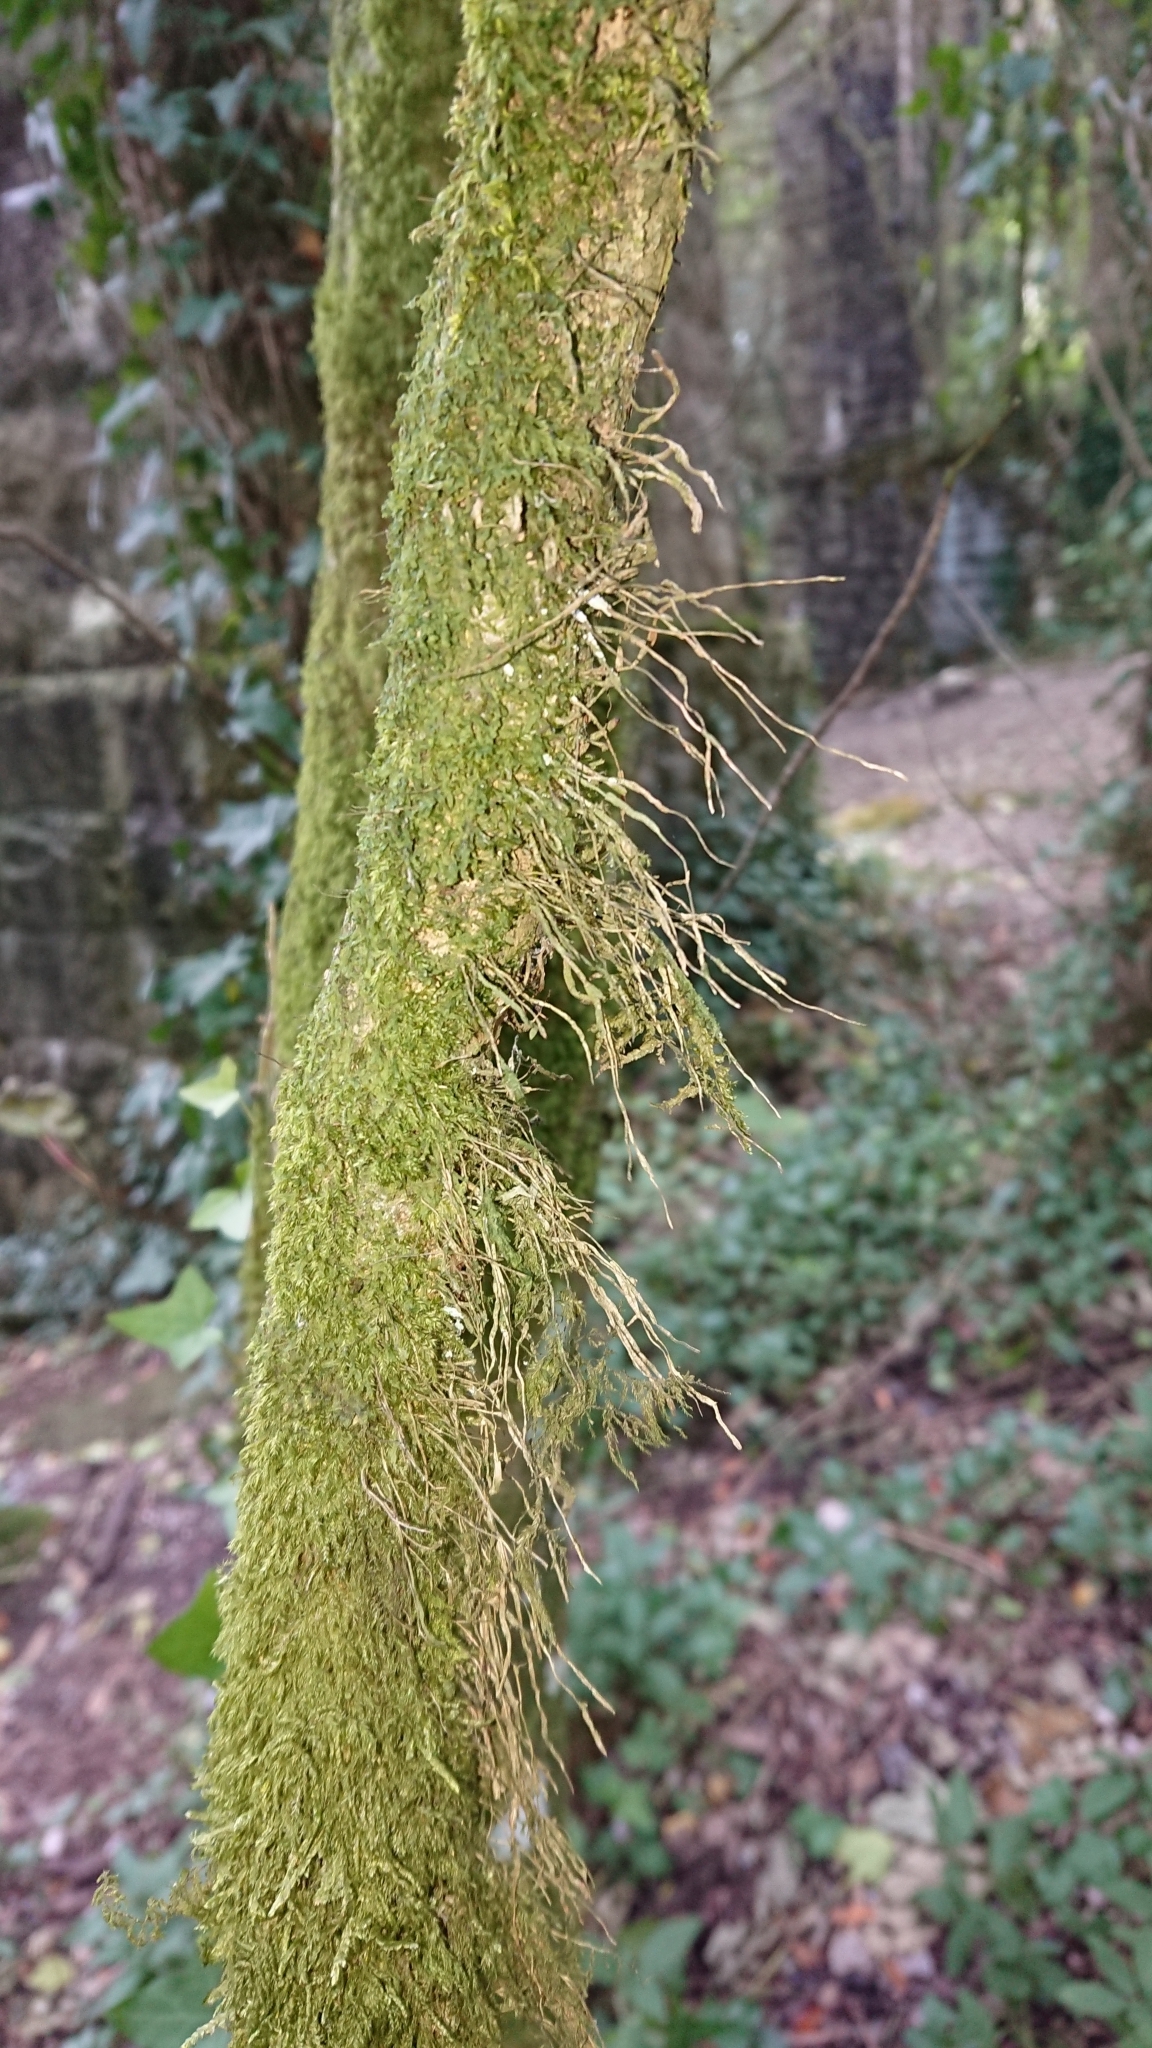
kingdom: Plantae
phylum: Bryophyta
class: Bryopsida
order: Hypnales
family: Lembophyllaceae
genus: Pseudisothecium
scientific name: Pseudisothecium myosuroides
